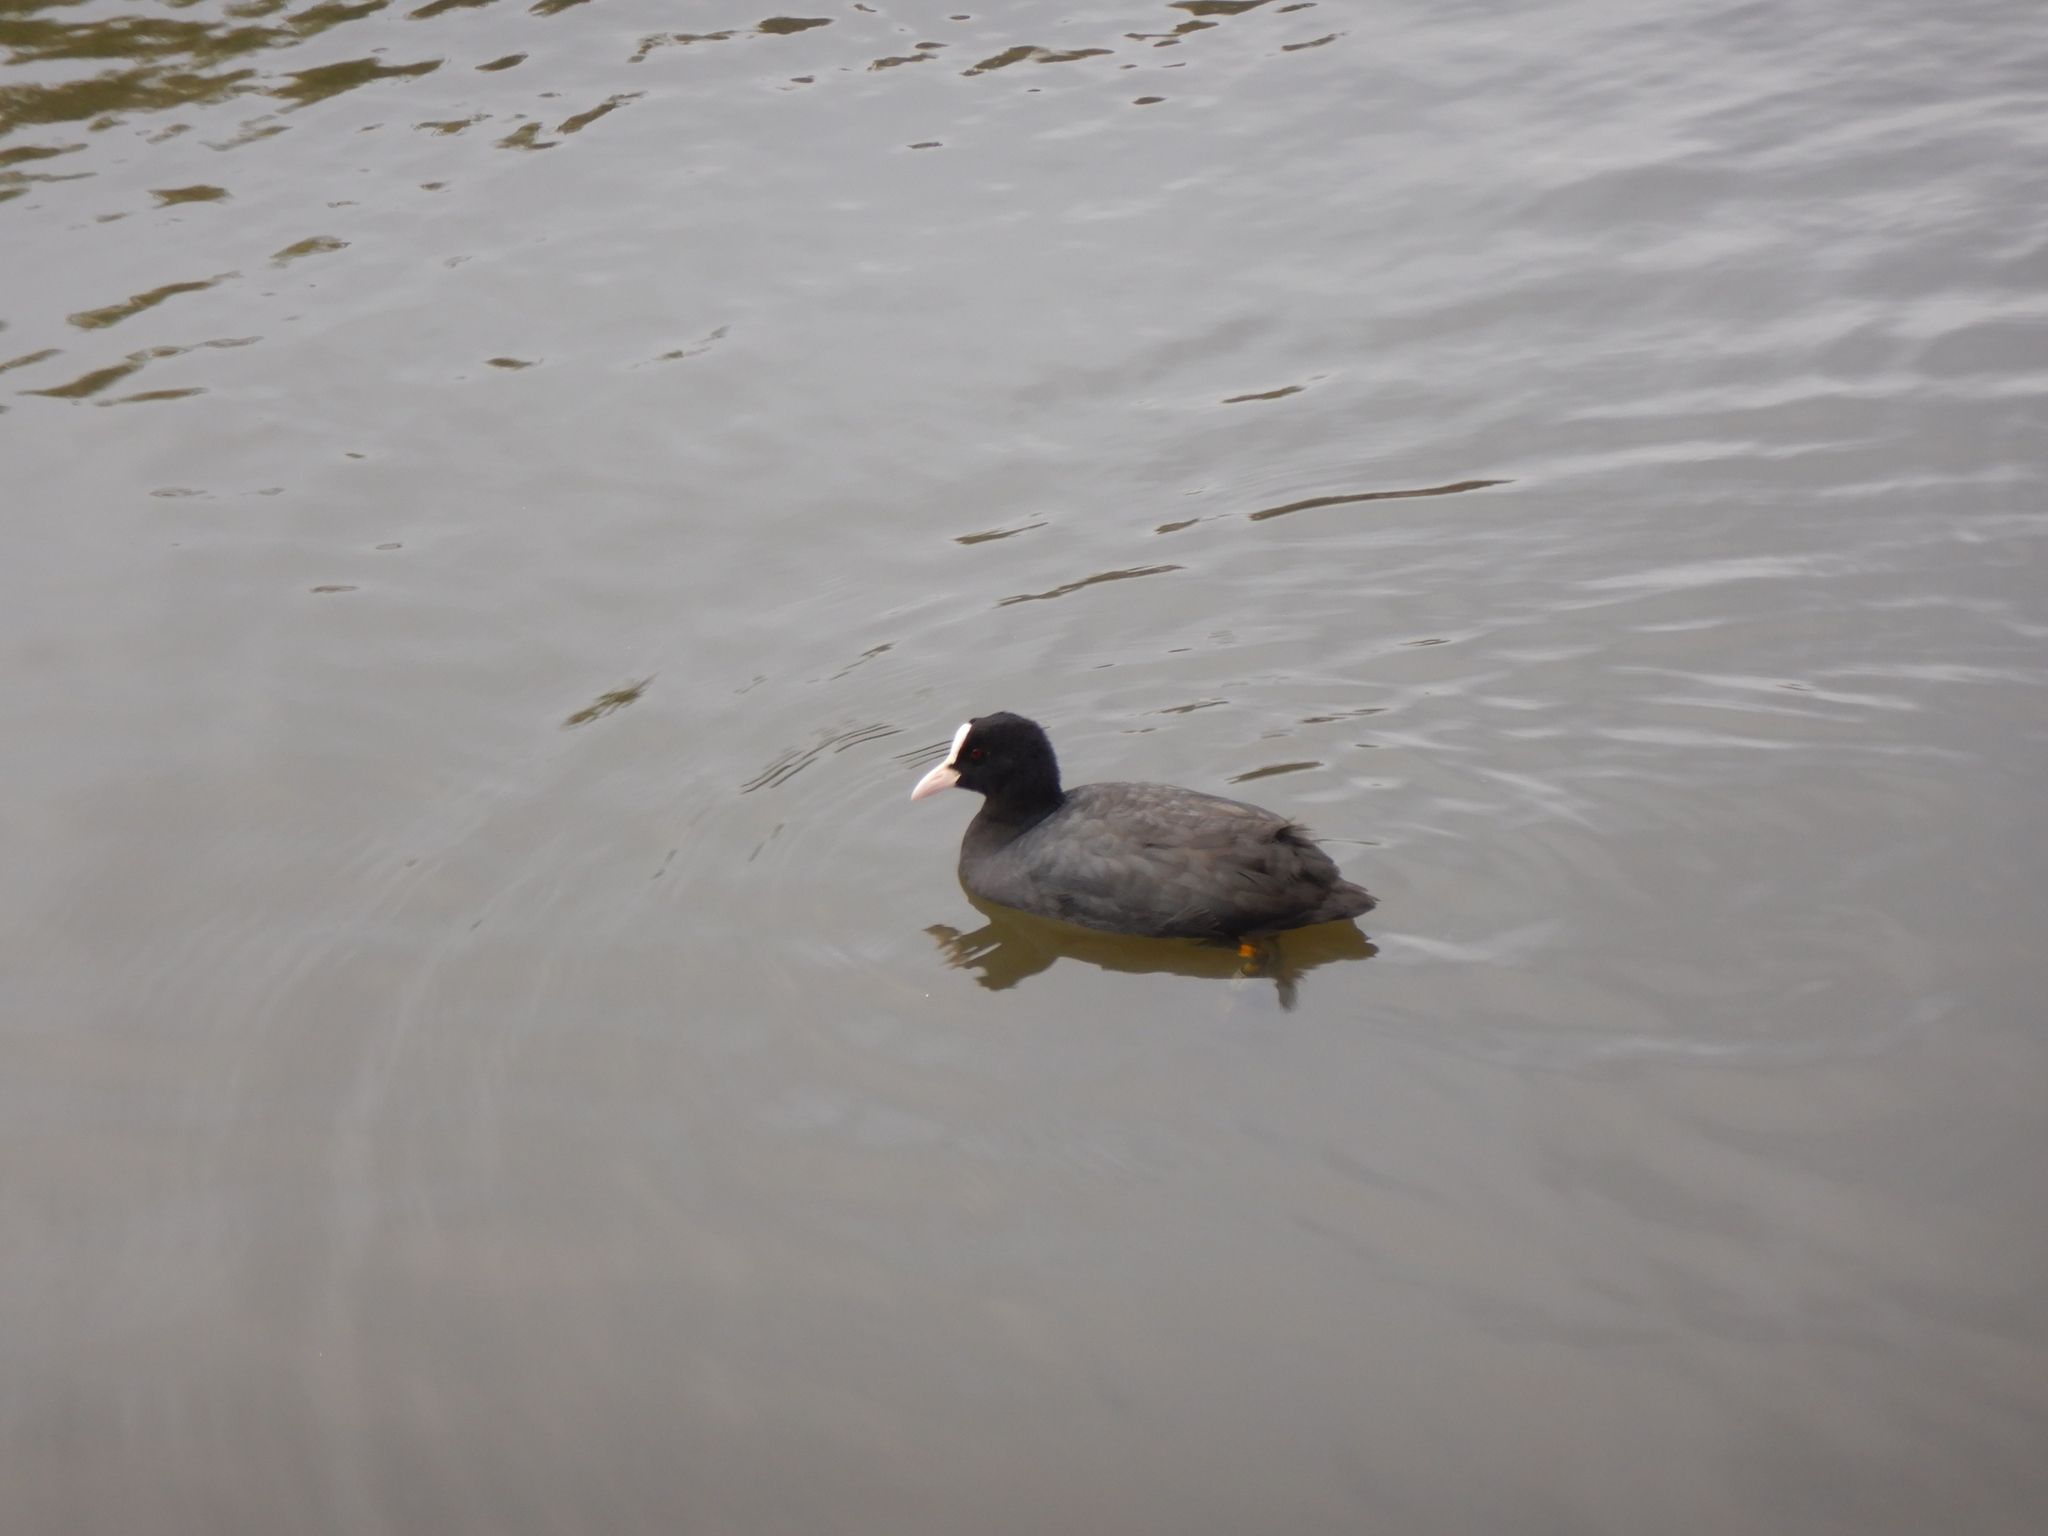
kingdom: Animalia
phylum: Chordata
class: Aves
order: Gruiformes
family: Rallidae
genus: Fulica
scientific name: Fulica atra
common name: Eurasian coot
